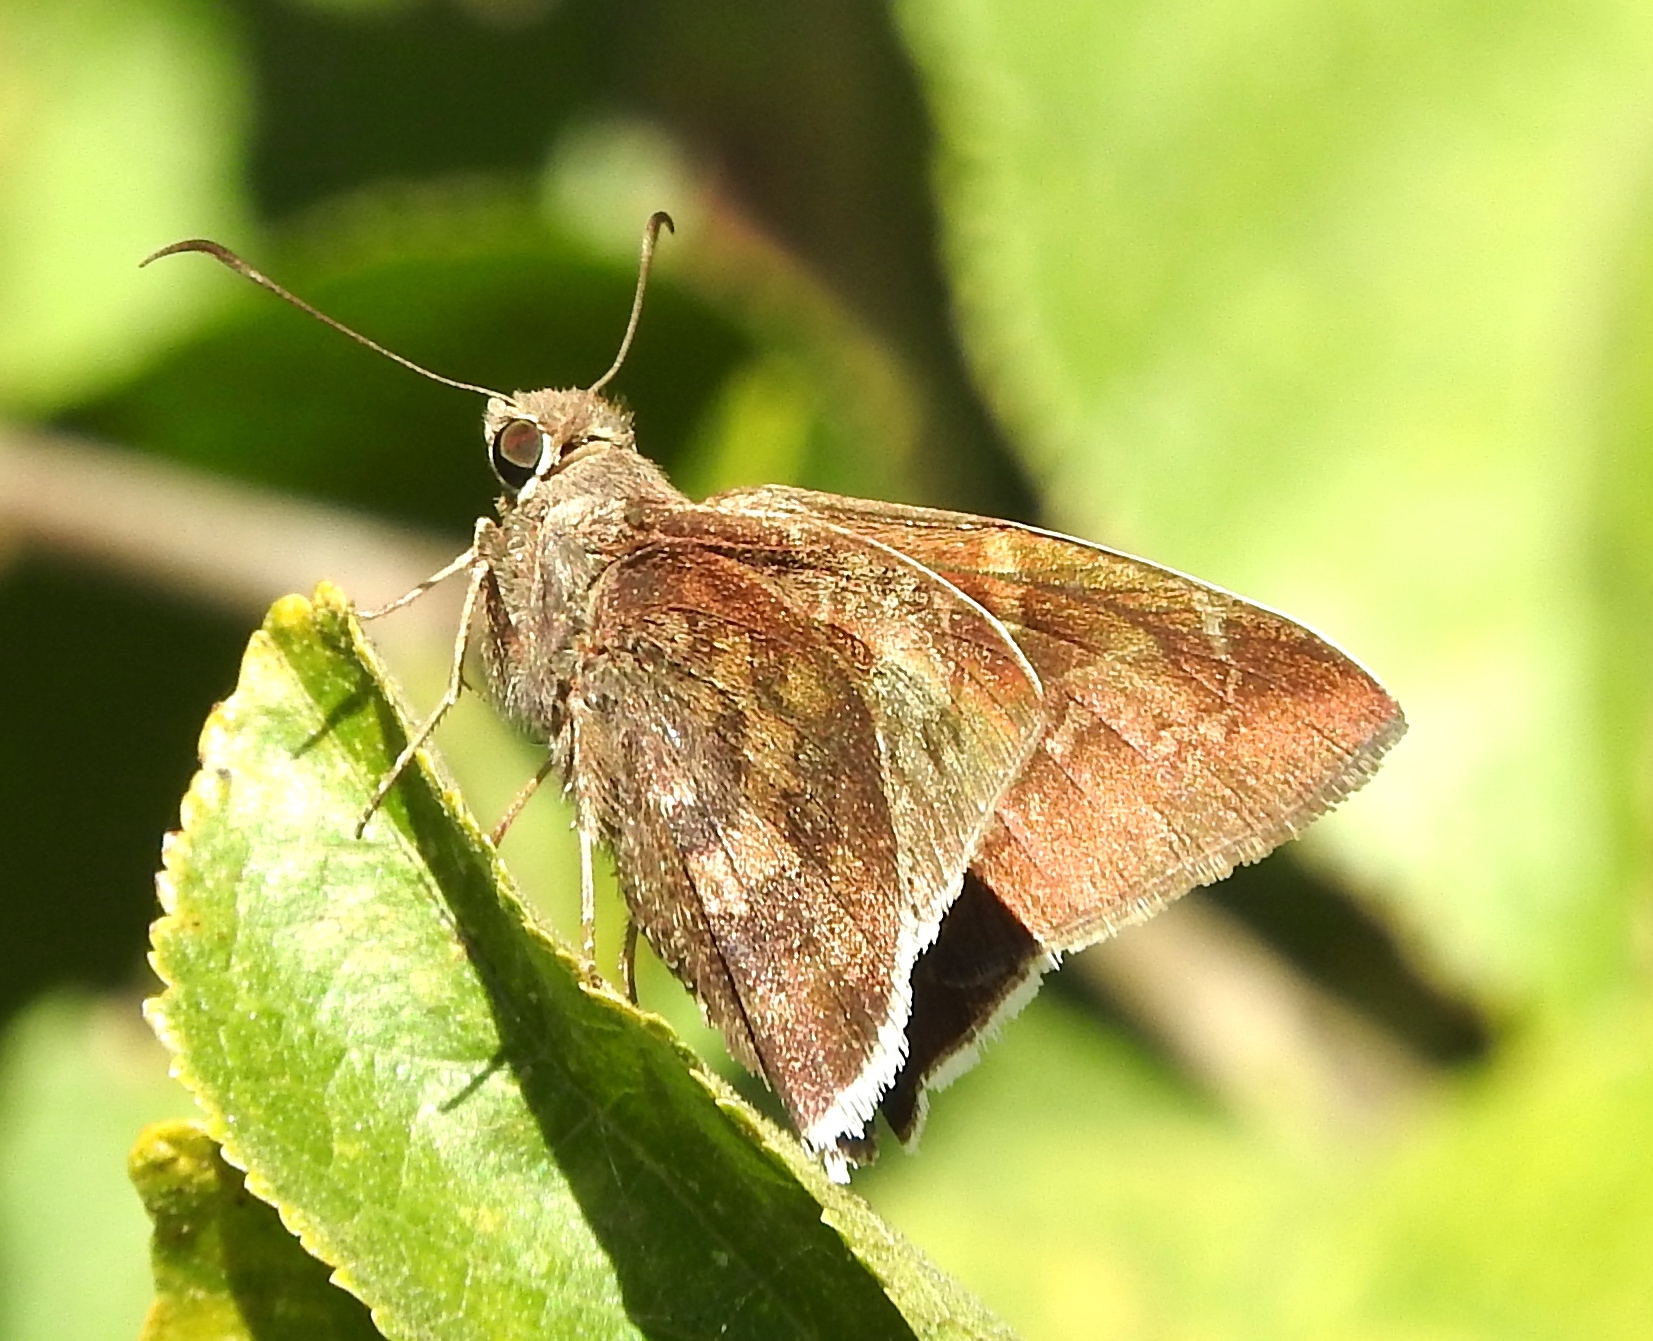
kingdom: Animalia
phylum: Arthropoda
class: Insecta
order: Lepidoptera
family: Hesperiidae
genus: Autochton
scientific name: Autochton
